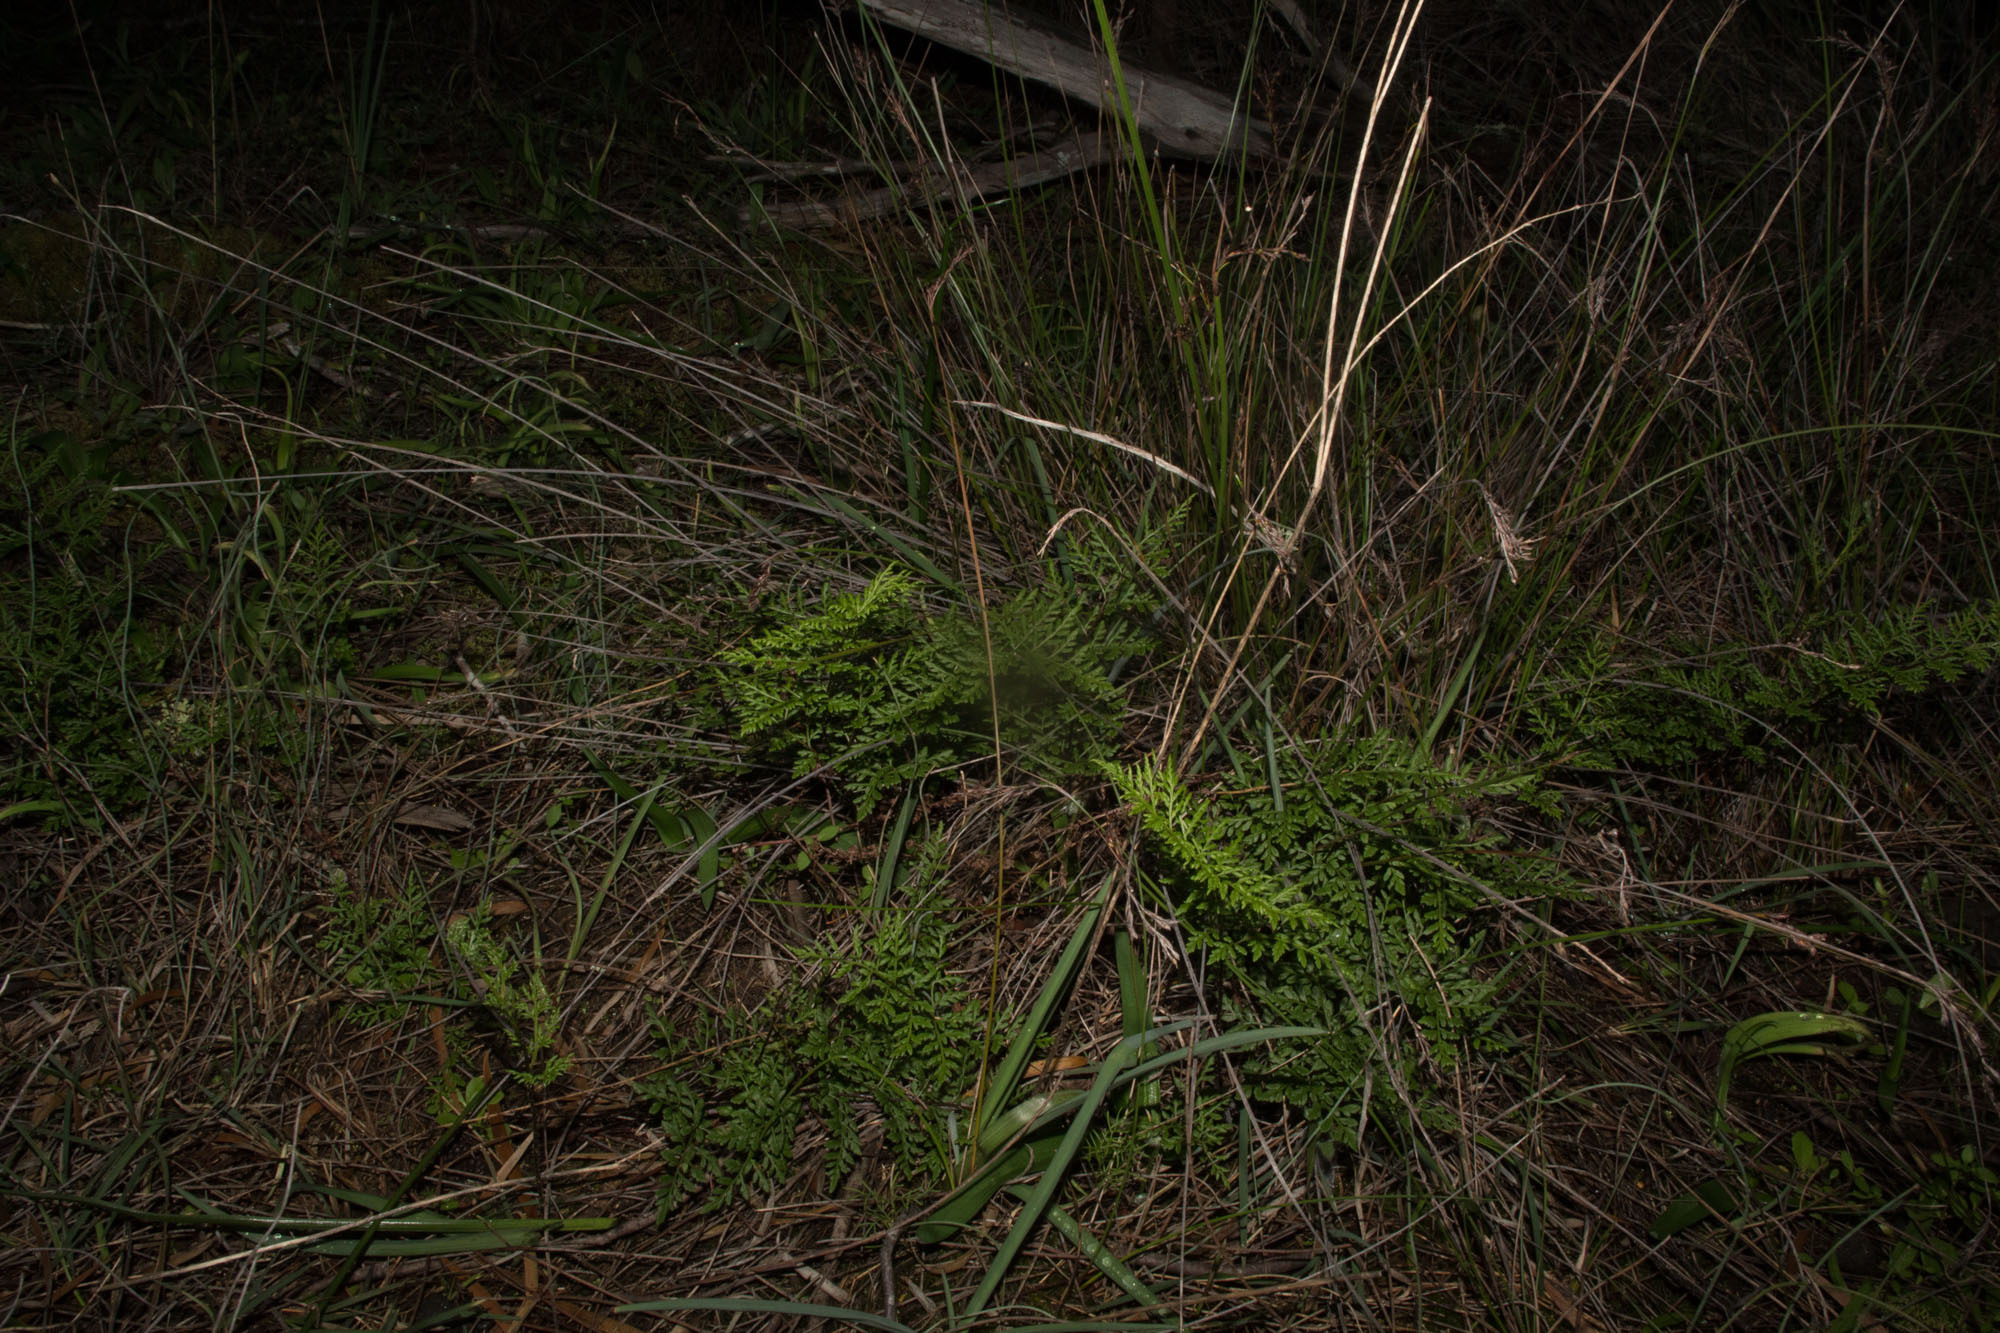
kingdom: Plantae
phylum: Tracheophyta
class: Polypodiopsida
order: Polypodiales
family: Pteridaceae
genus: Cheilanthes
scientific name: Cheilanthes austrotenuifolia
